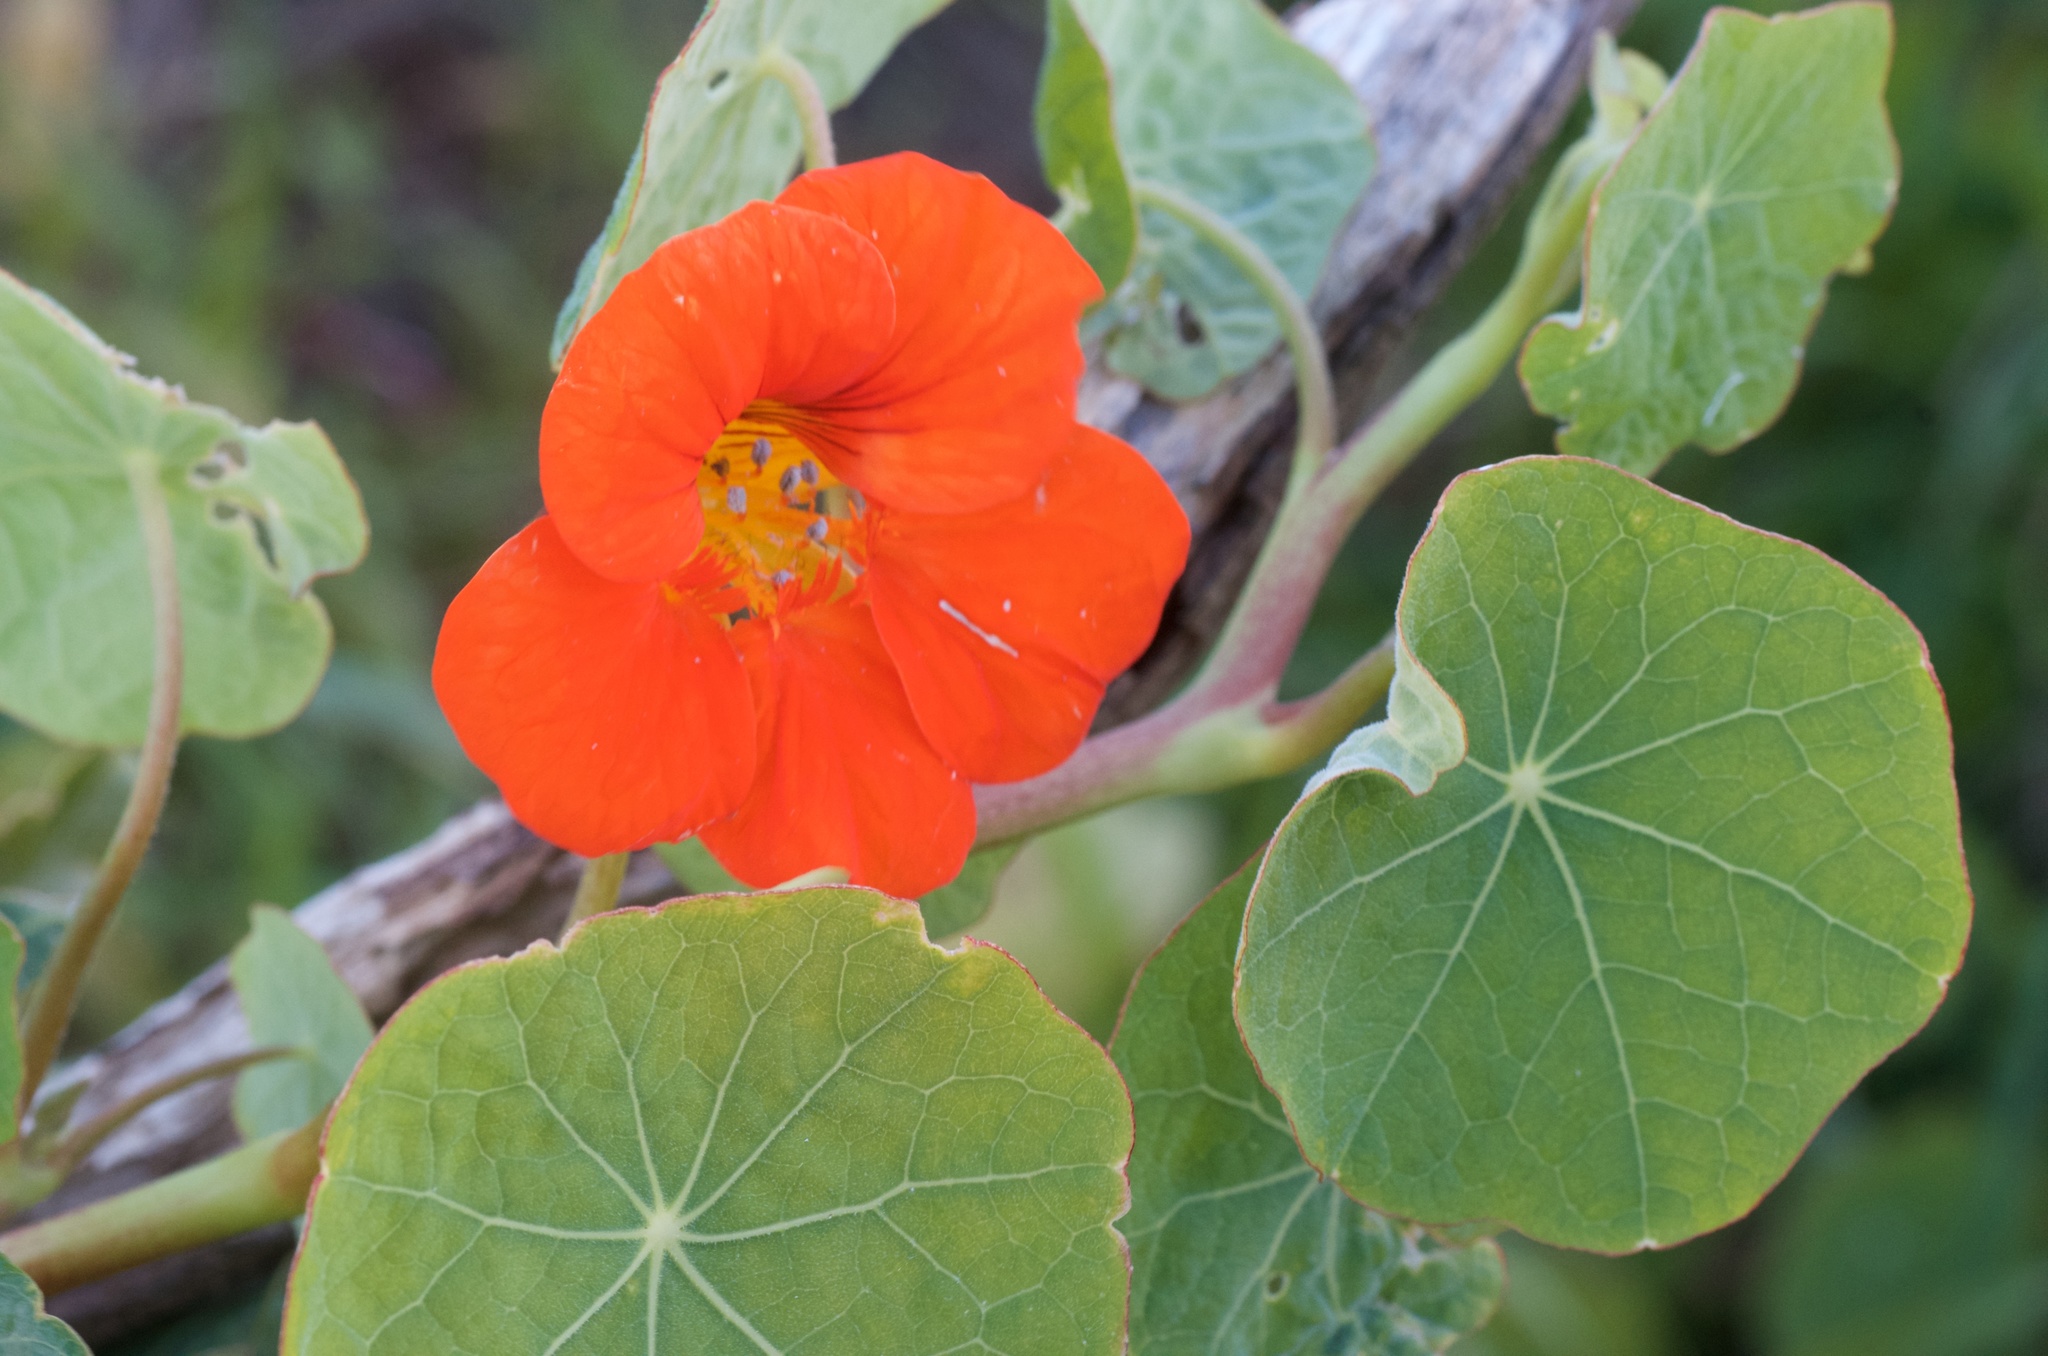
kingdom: Plantae
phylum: Tracheophyta
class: Magnoliopsida
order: Brassicales
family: Tropaeolaceae
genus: Tropaeolum
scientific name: Tropaeolum majus
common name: Nasturtium
